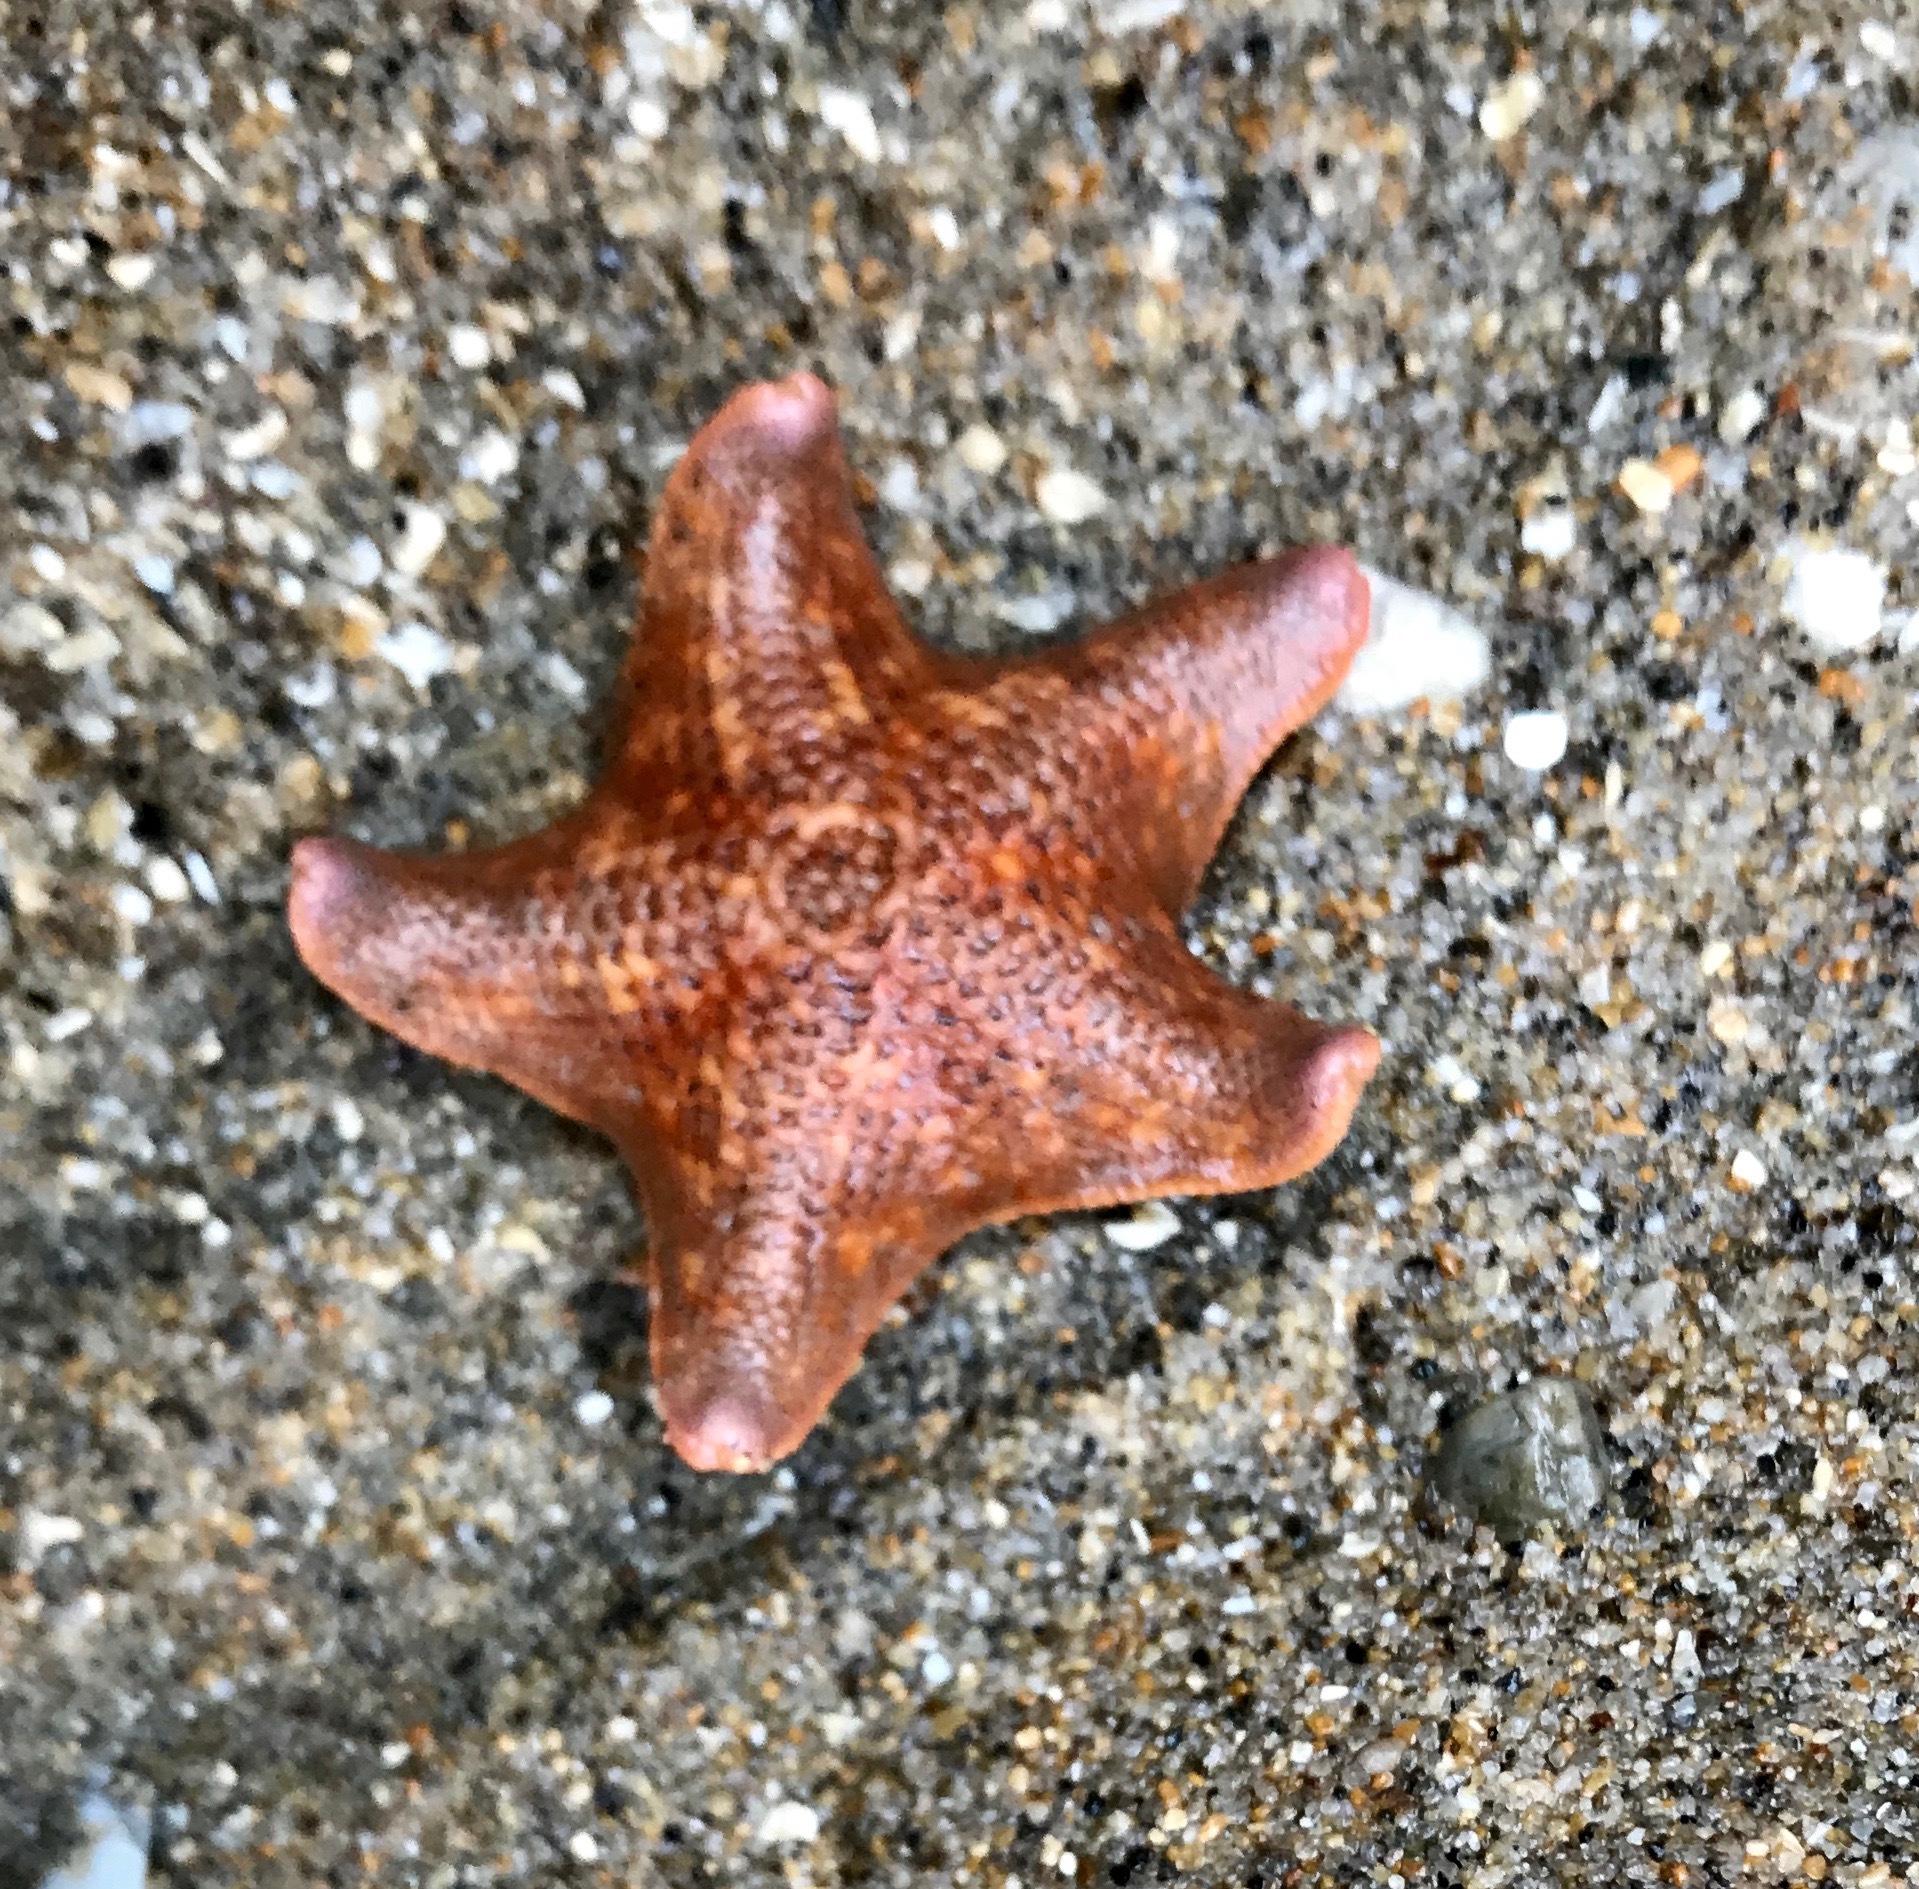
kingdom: Animalia
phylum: Echinodermata
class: Asteroidea
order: Valvatida
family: Asterinidae
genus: Patiria
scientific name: Patiria miniata
